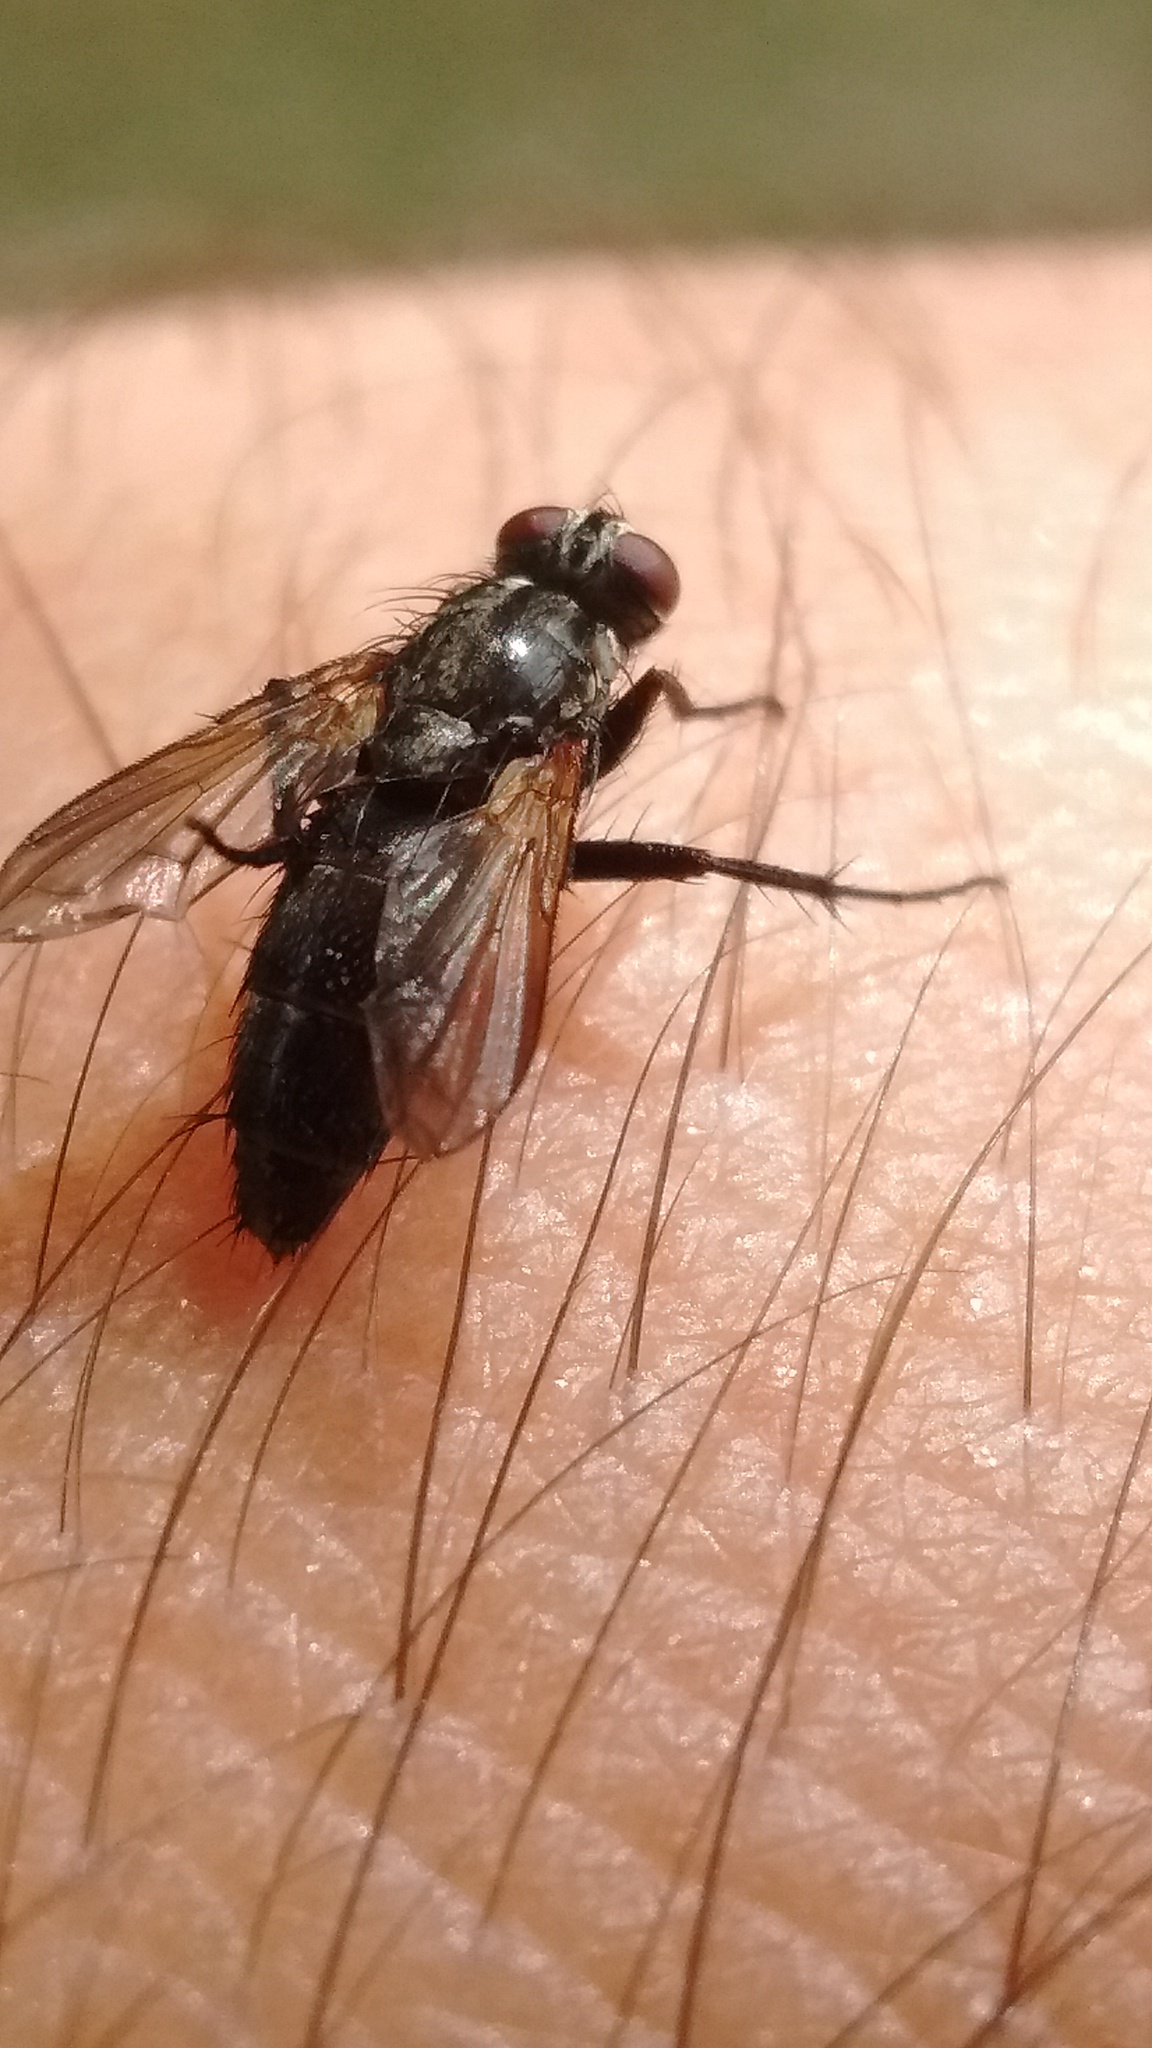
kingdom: Animalia
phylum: Arthropoda
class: Insecta
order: Diptera
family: Calliphoridae
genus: Stevenia
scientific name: Stevenia deceptoria
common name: Grizzled woodlouse-fly
